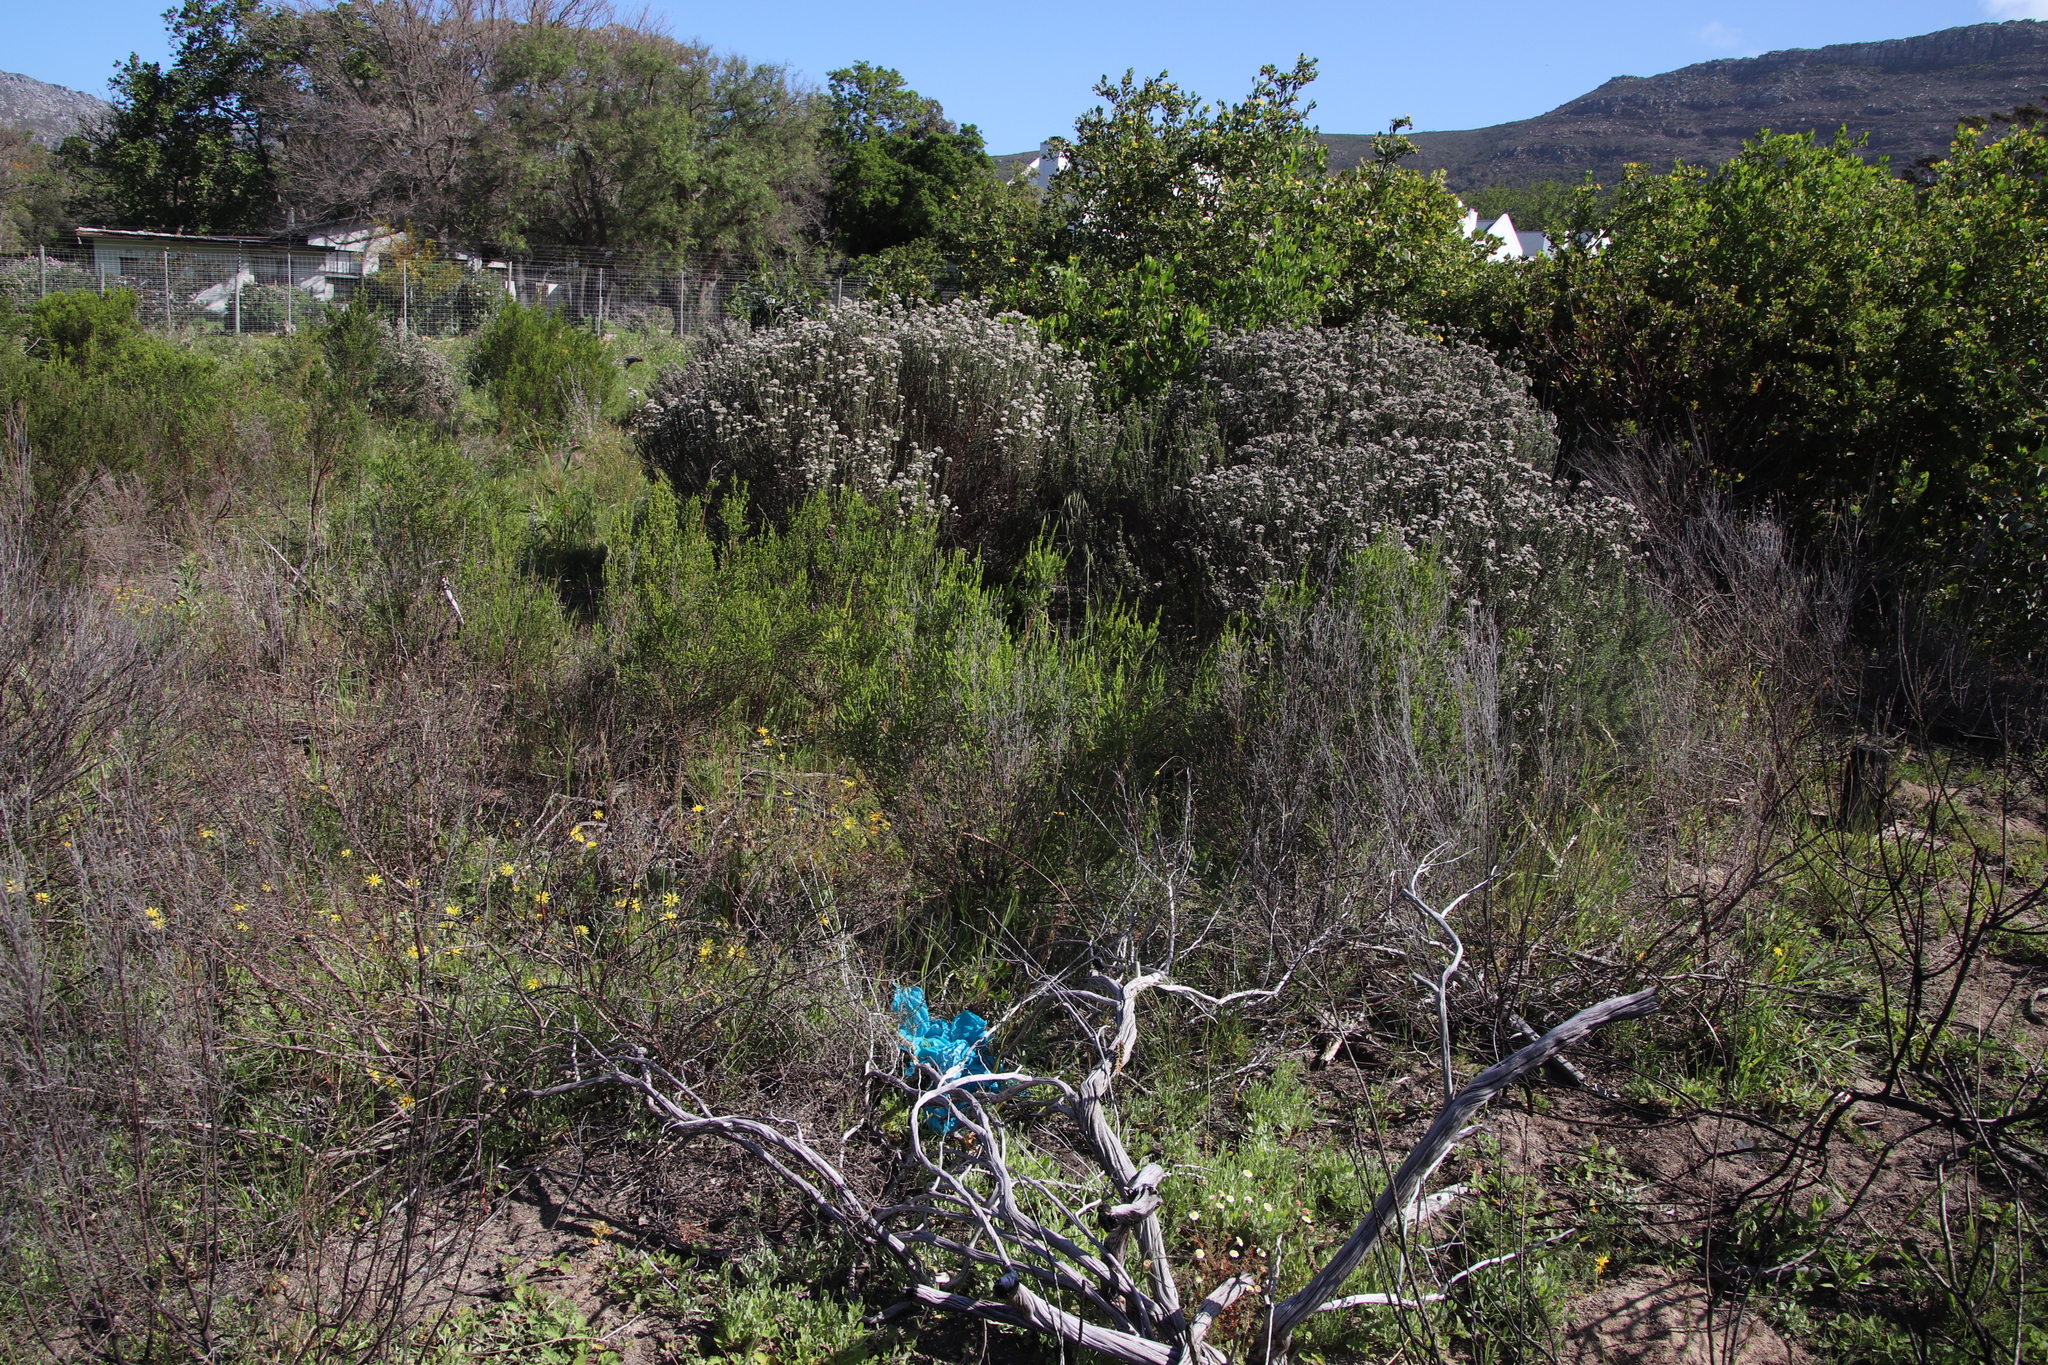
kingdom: Plantae
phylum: Tracheophyta
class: Magnoliopsida
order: Malvales
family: Thymelaeaceae
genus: Passerina
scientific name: Passerina corymbosa
